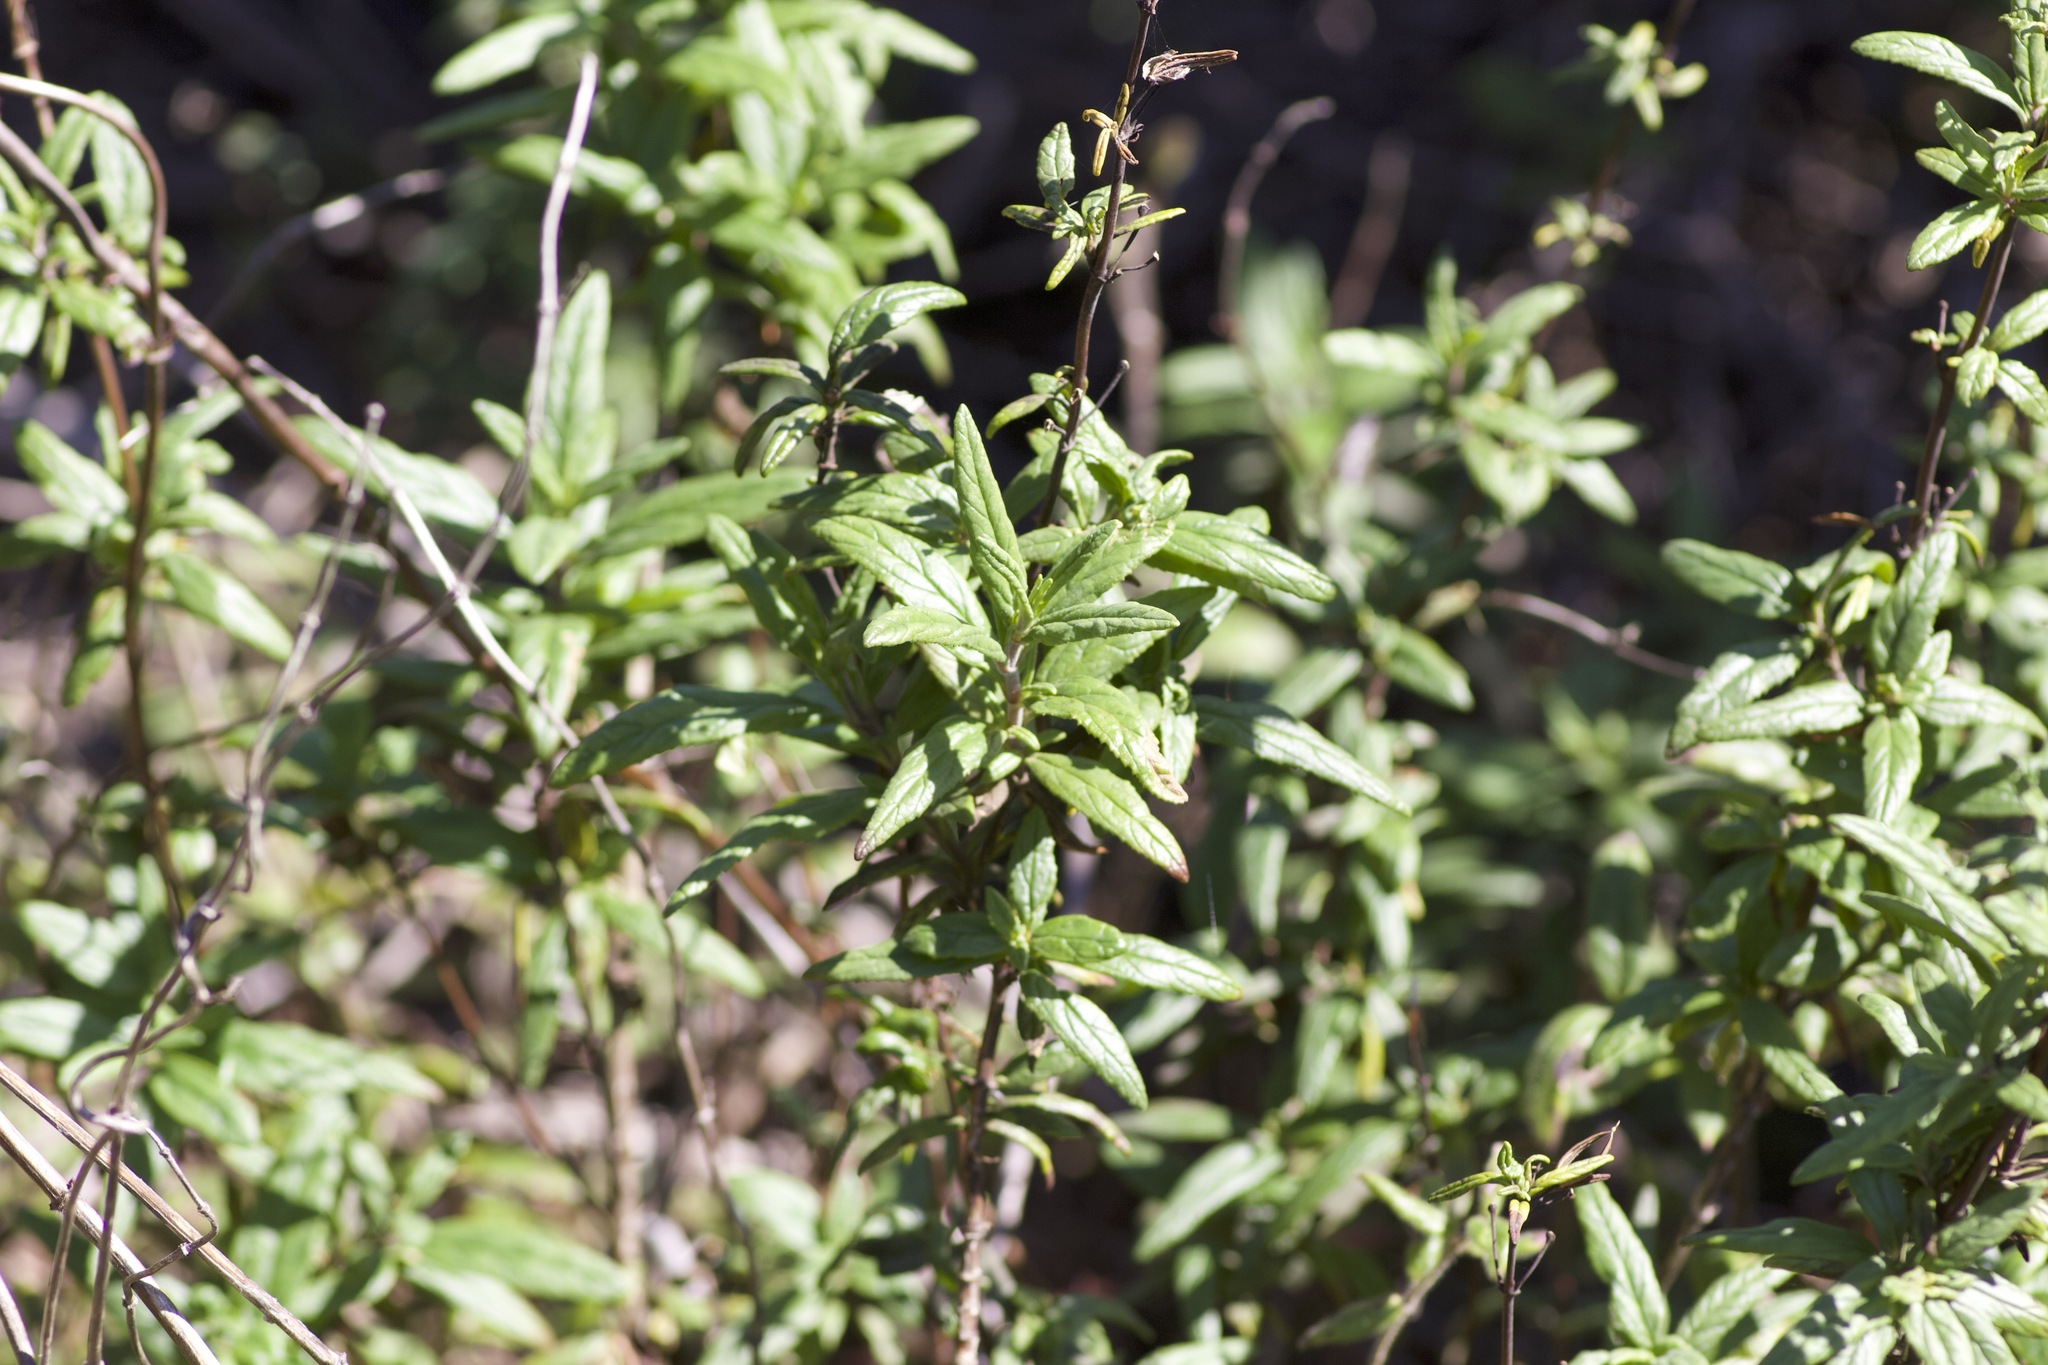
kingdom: Plantae
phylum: Tracheophyta
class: Magnoliopsida
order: Lamiales
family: Phrymaceae
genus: Diplacus
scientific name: Diplacus aurantiacus
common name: Bush monkey-flower
